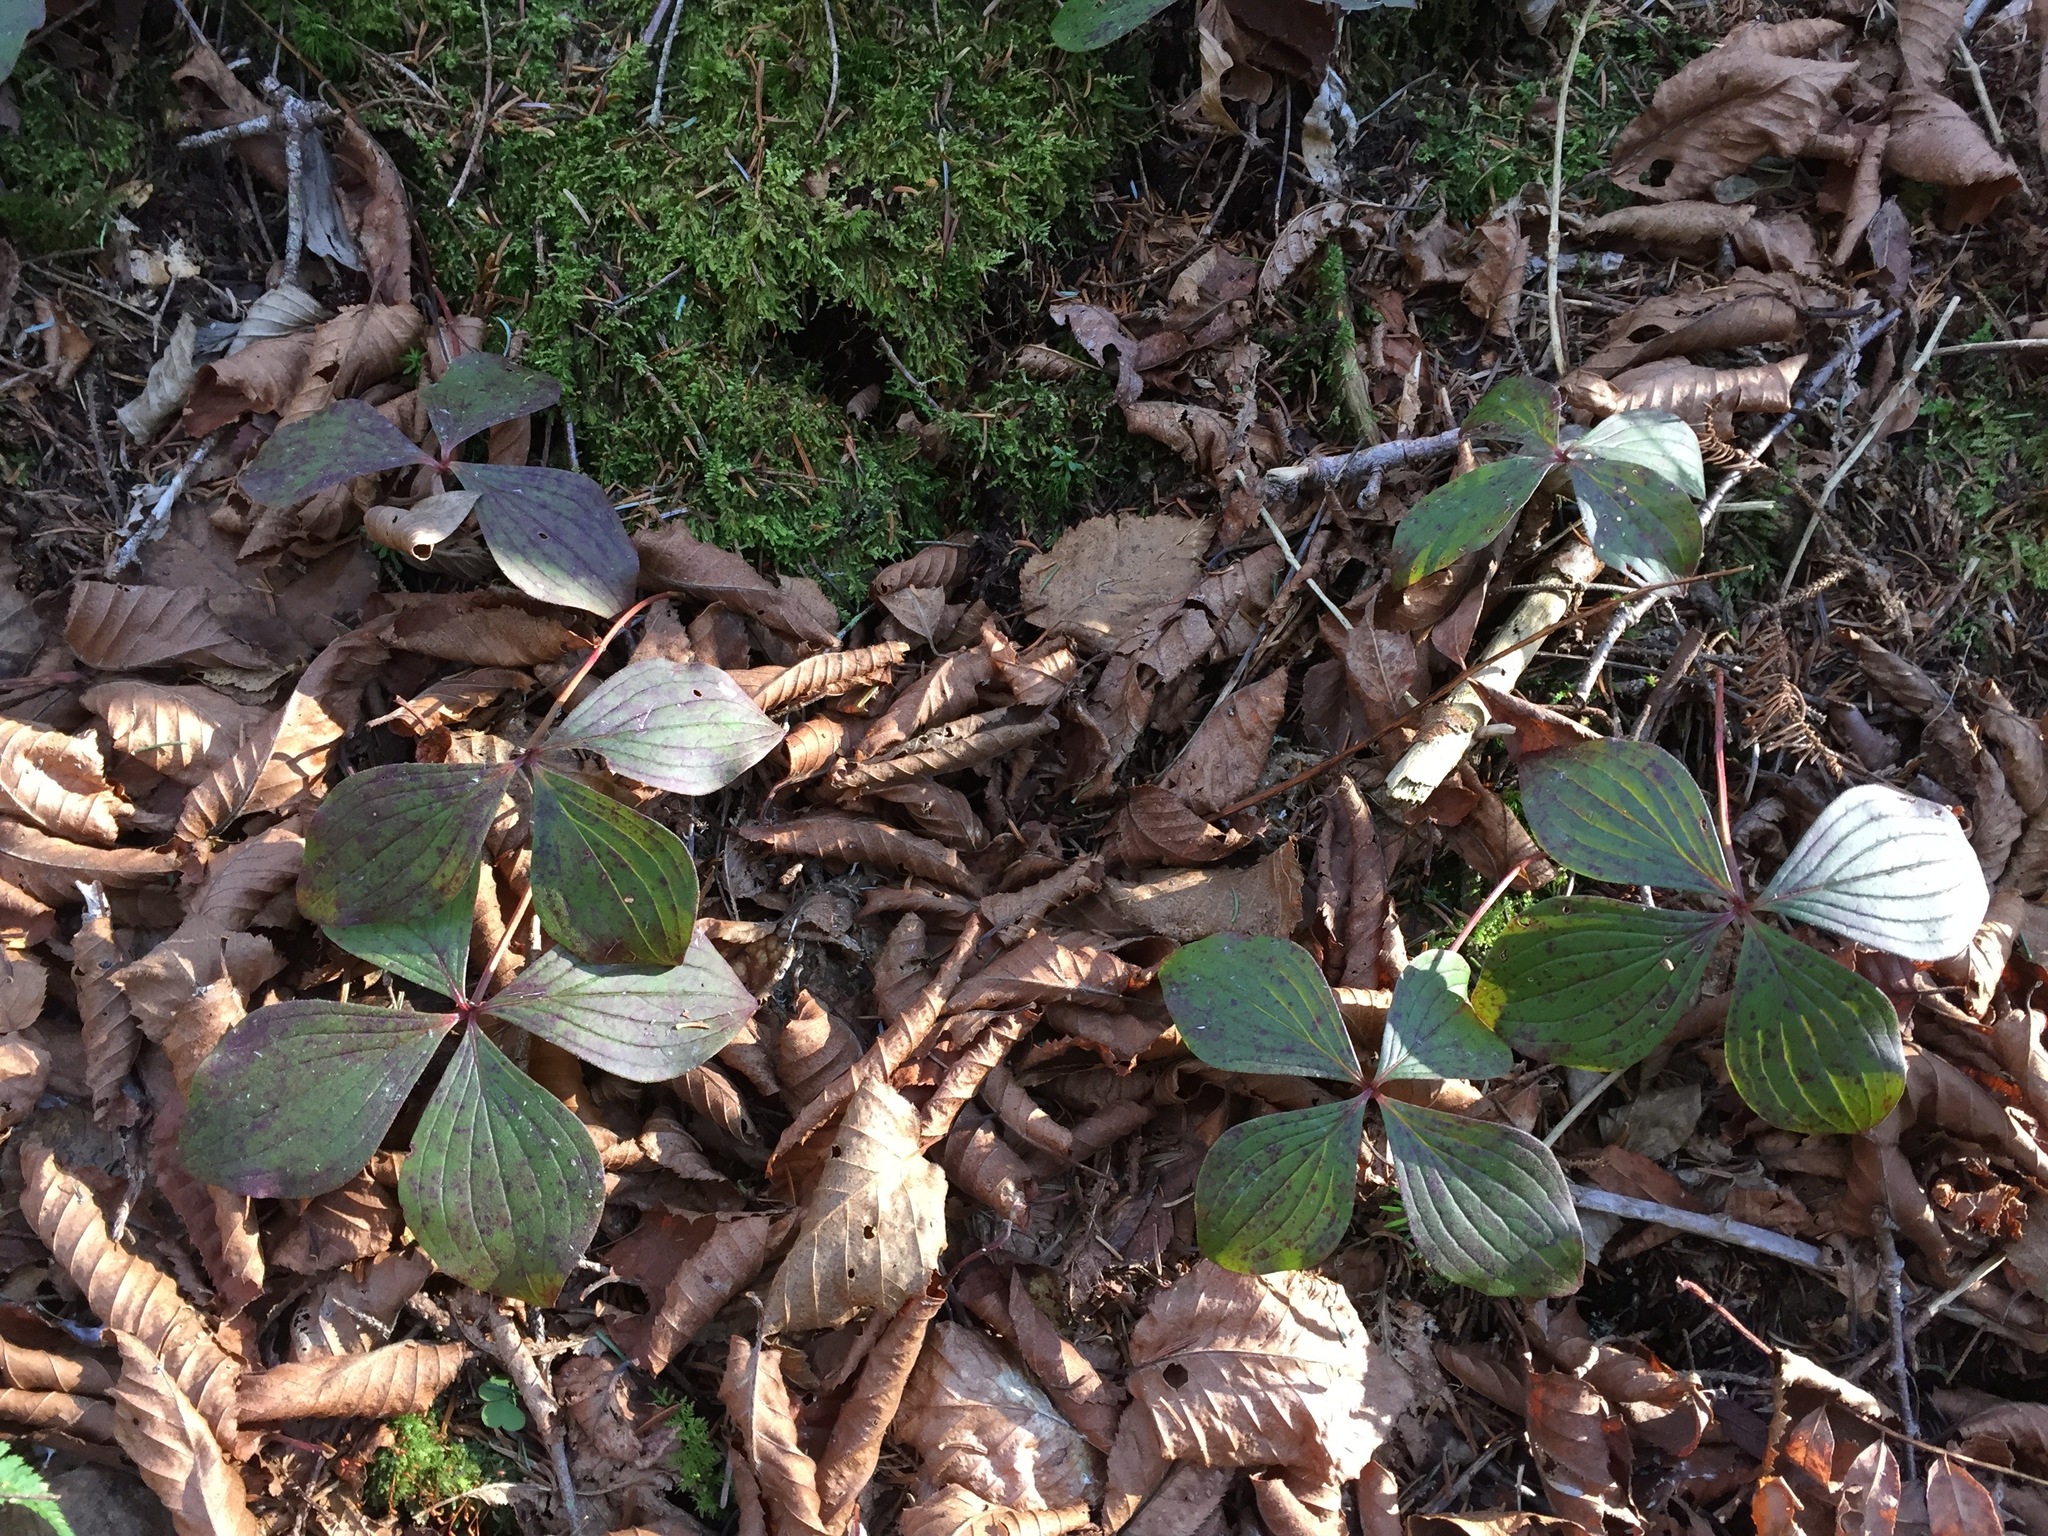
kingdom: Plantae
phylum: Tracheophyta
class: Magnoliopsida
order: Cornales
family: Cornaceae
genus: Cornus
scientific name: Cornus canadensis
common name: Creeping dogwood
